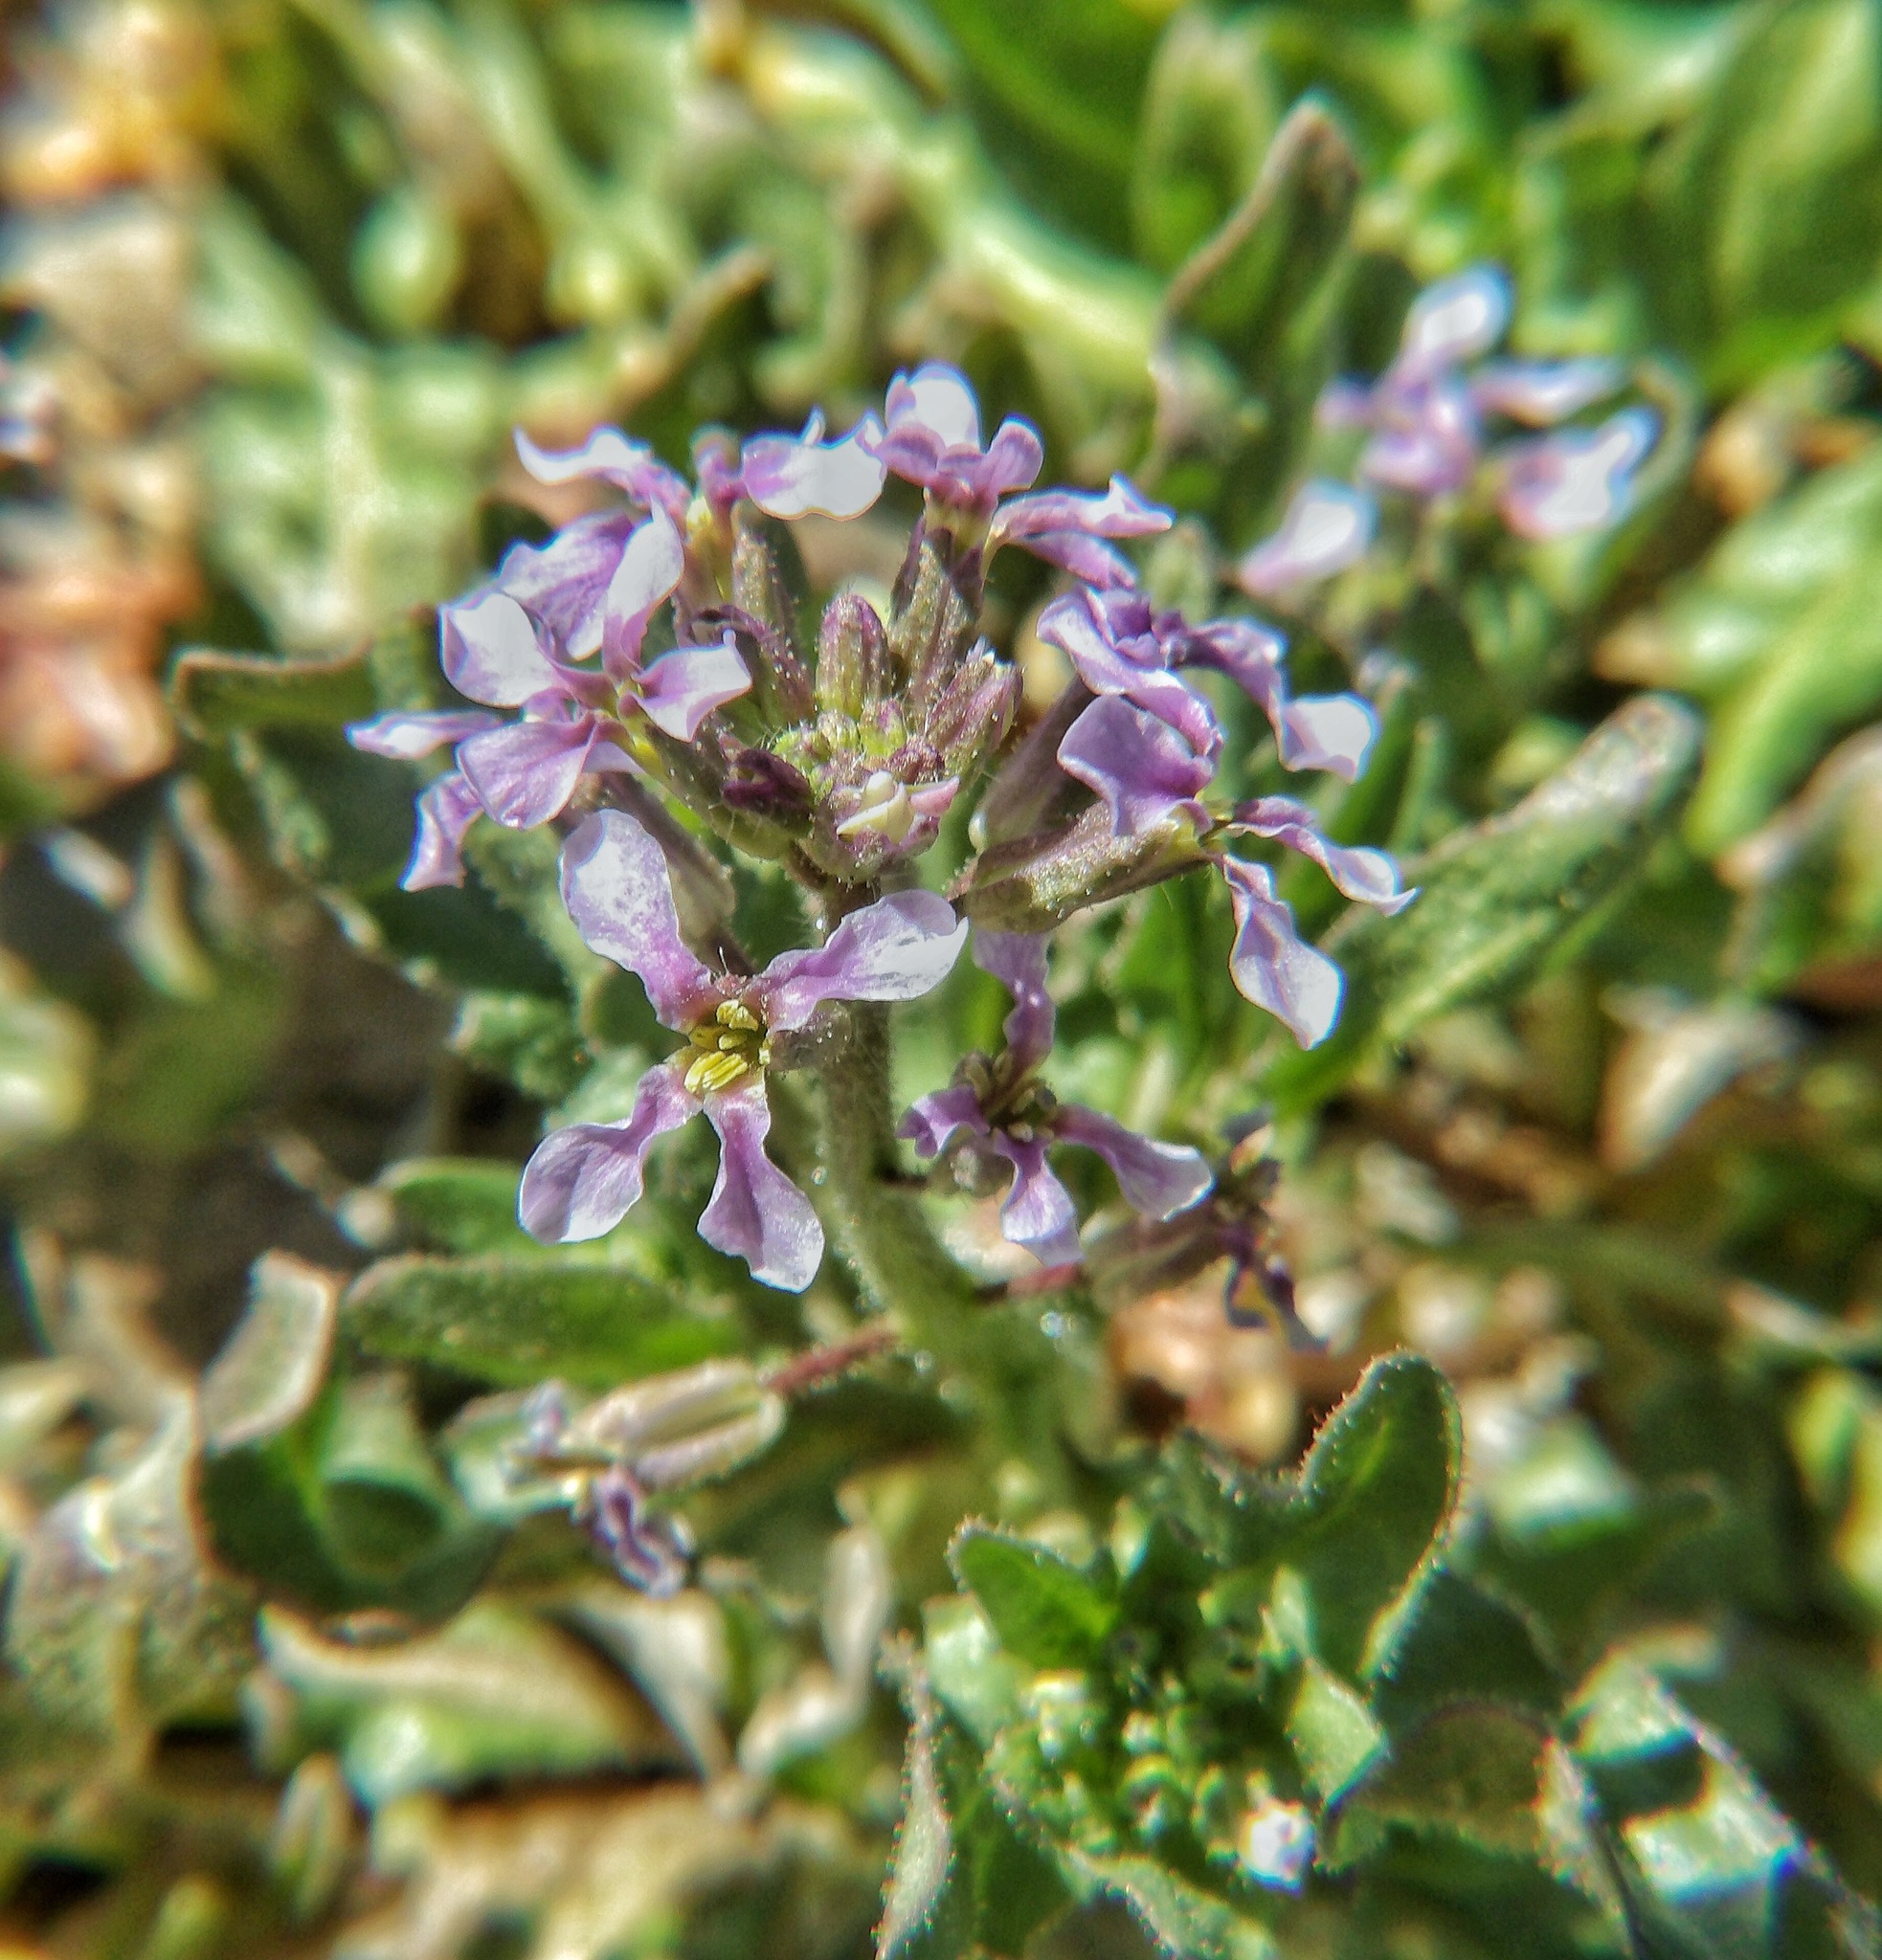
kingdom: Plantae
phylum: Tracheophyta
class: Magnoliopsida
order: Brassicales
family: Brassicaceae
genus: Chorispora
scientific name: Chorispora tenella
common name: Crossflower
